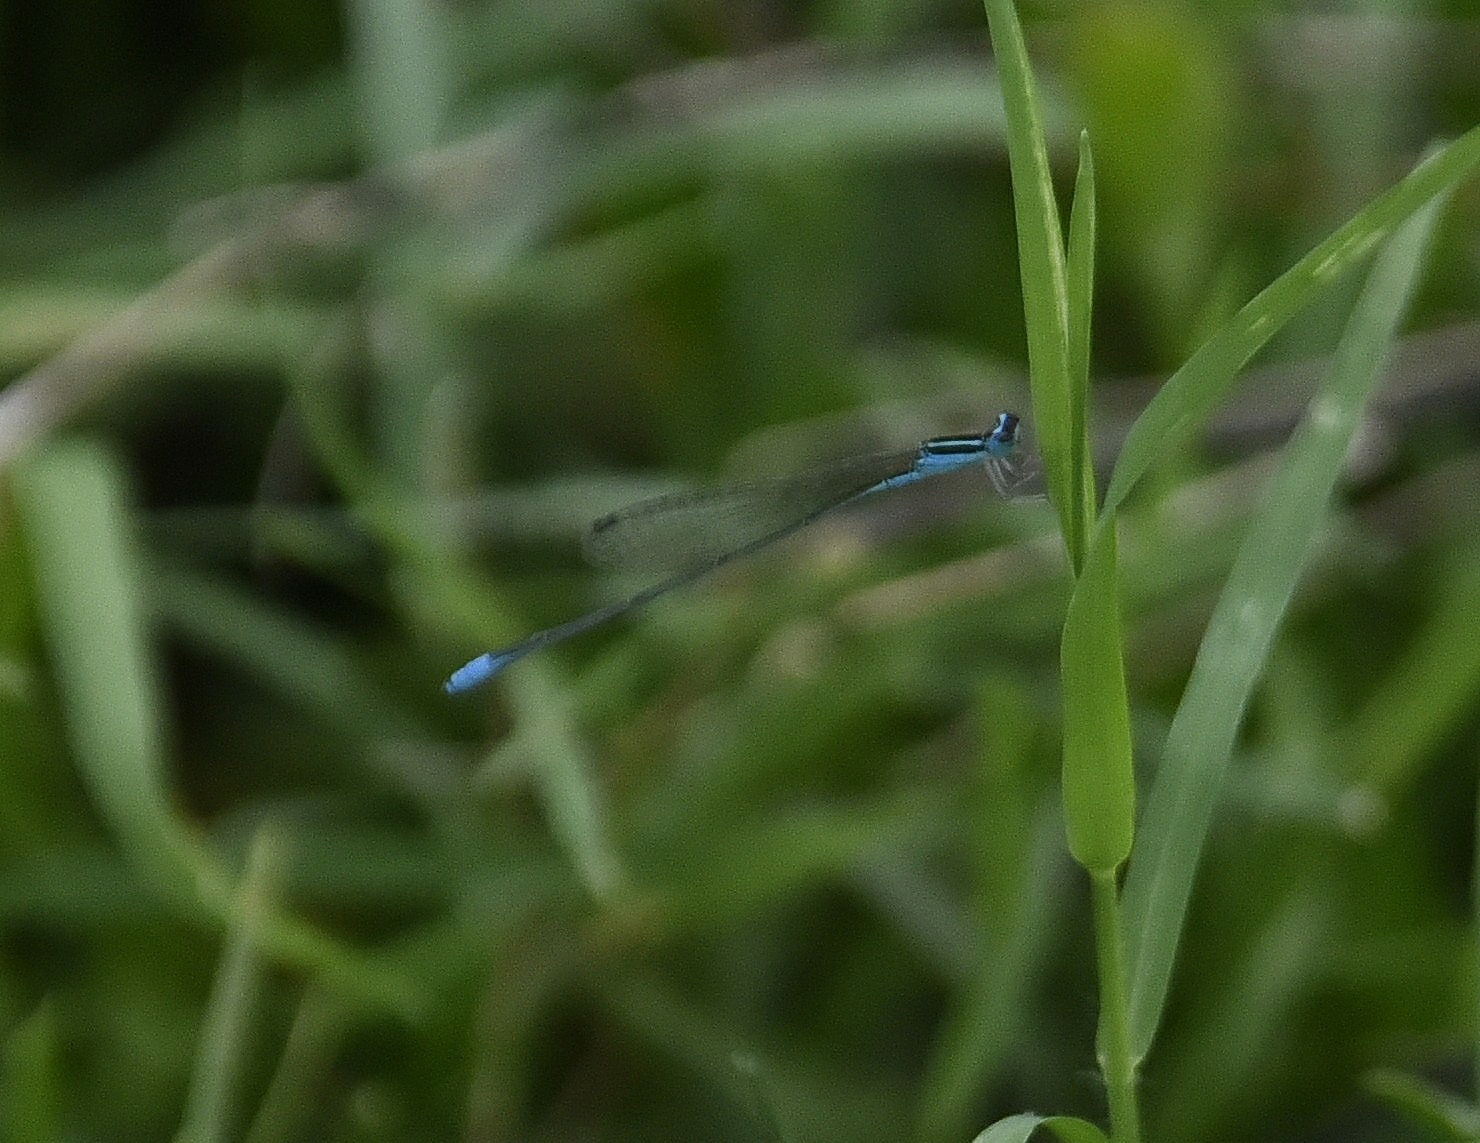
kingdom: Animalia
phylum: Arthropoda
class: Insecta
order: Odonata
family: Coenagrionidae
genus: Aciagrion
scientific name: Aciagrion occidentale
